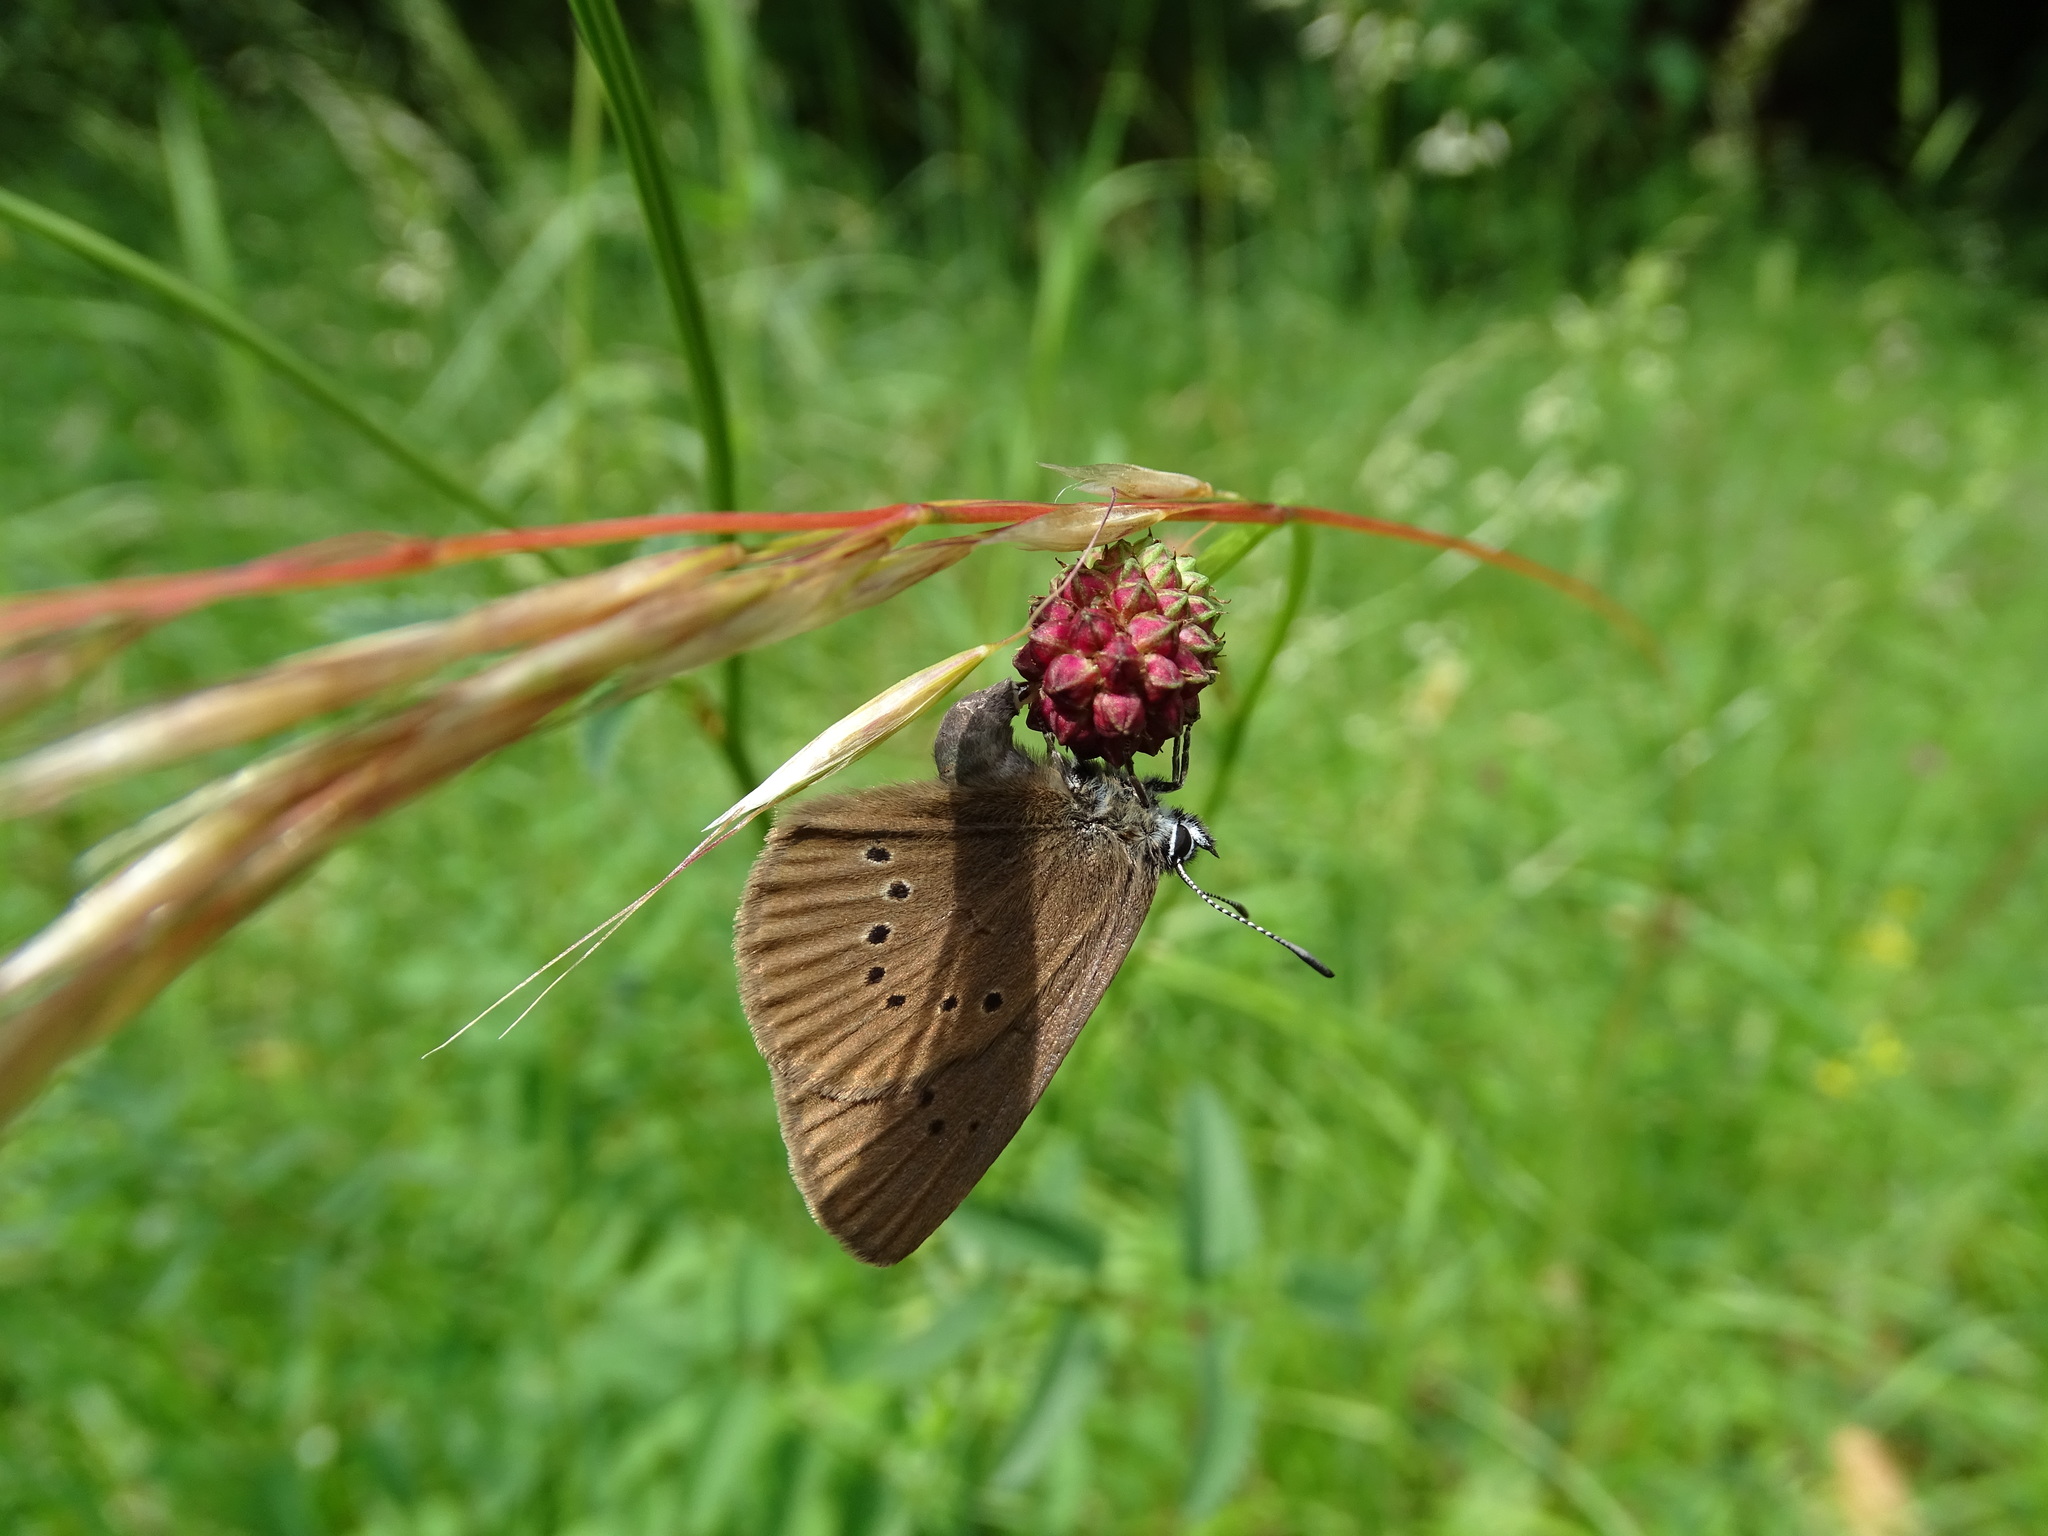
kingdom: Animalia
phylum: Arthropoda
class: Insecta
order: Lepidoptera
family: Lycaenidae
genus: Maculinea
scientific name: Maculinea nausithous
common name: Dusky large blue
